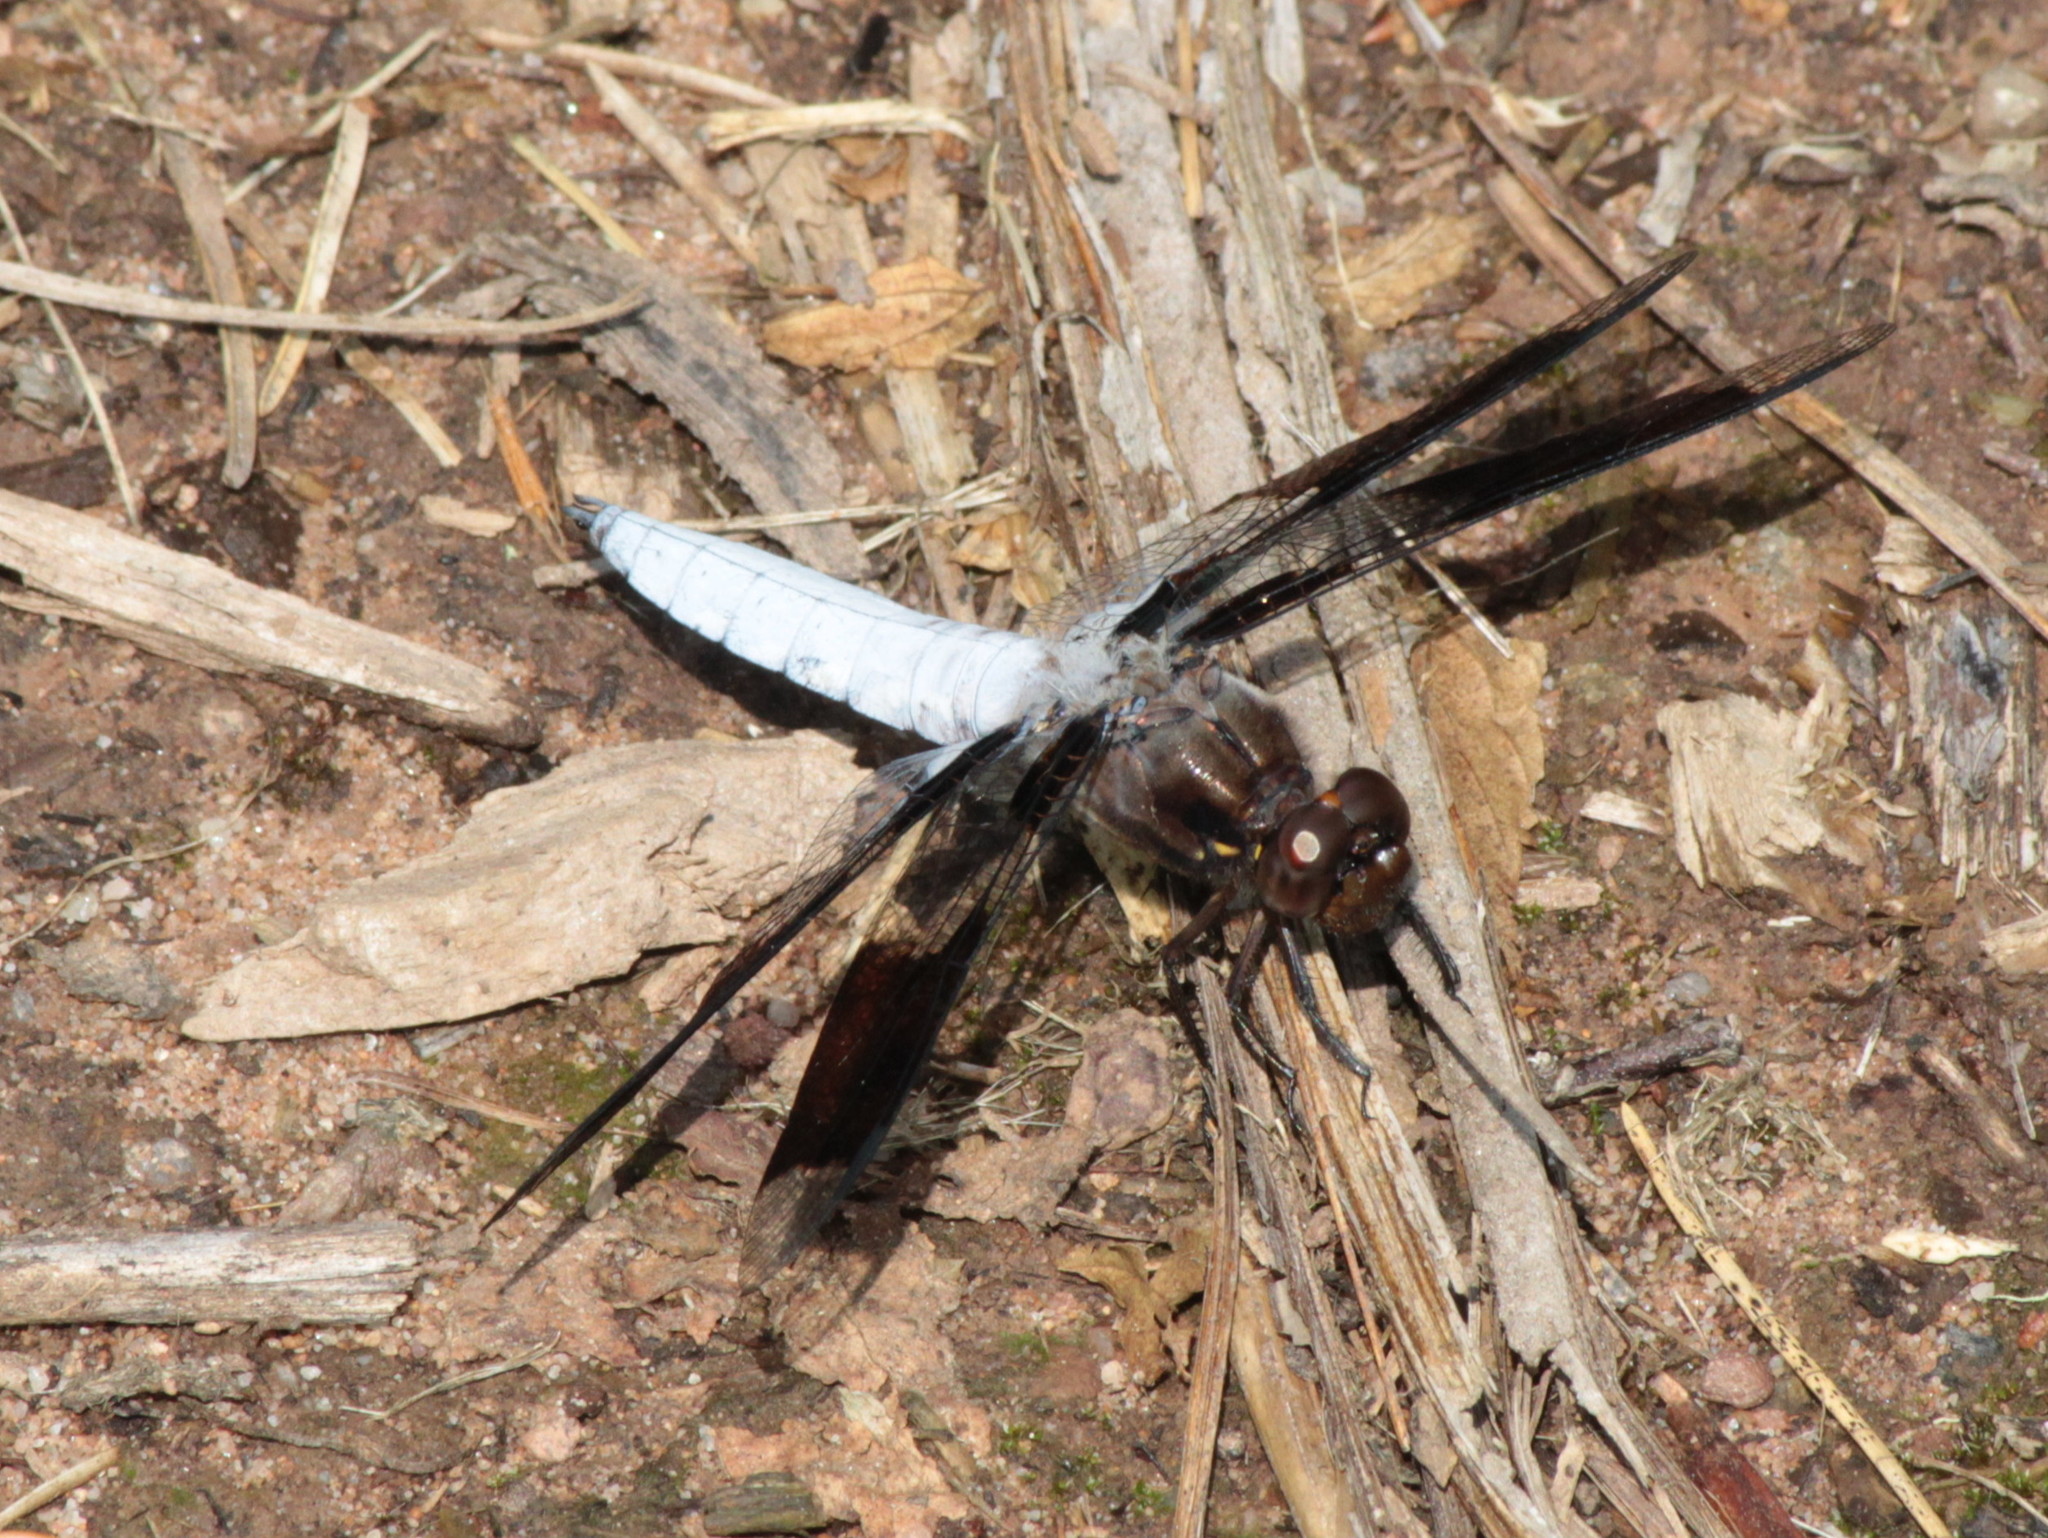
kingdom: Animalia
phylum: Arthropoda
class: Insecta
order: Odonata
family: Libellulidae
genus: Plathemis
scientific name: Plathemis lydia
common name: Common whitetail
